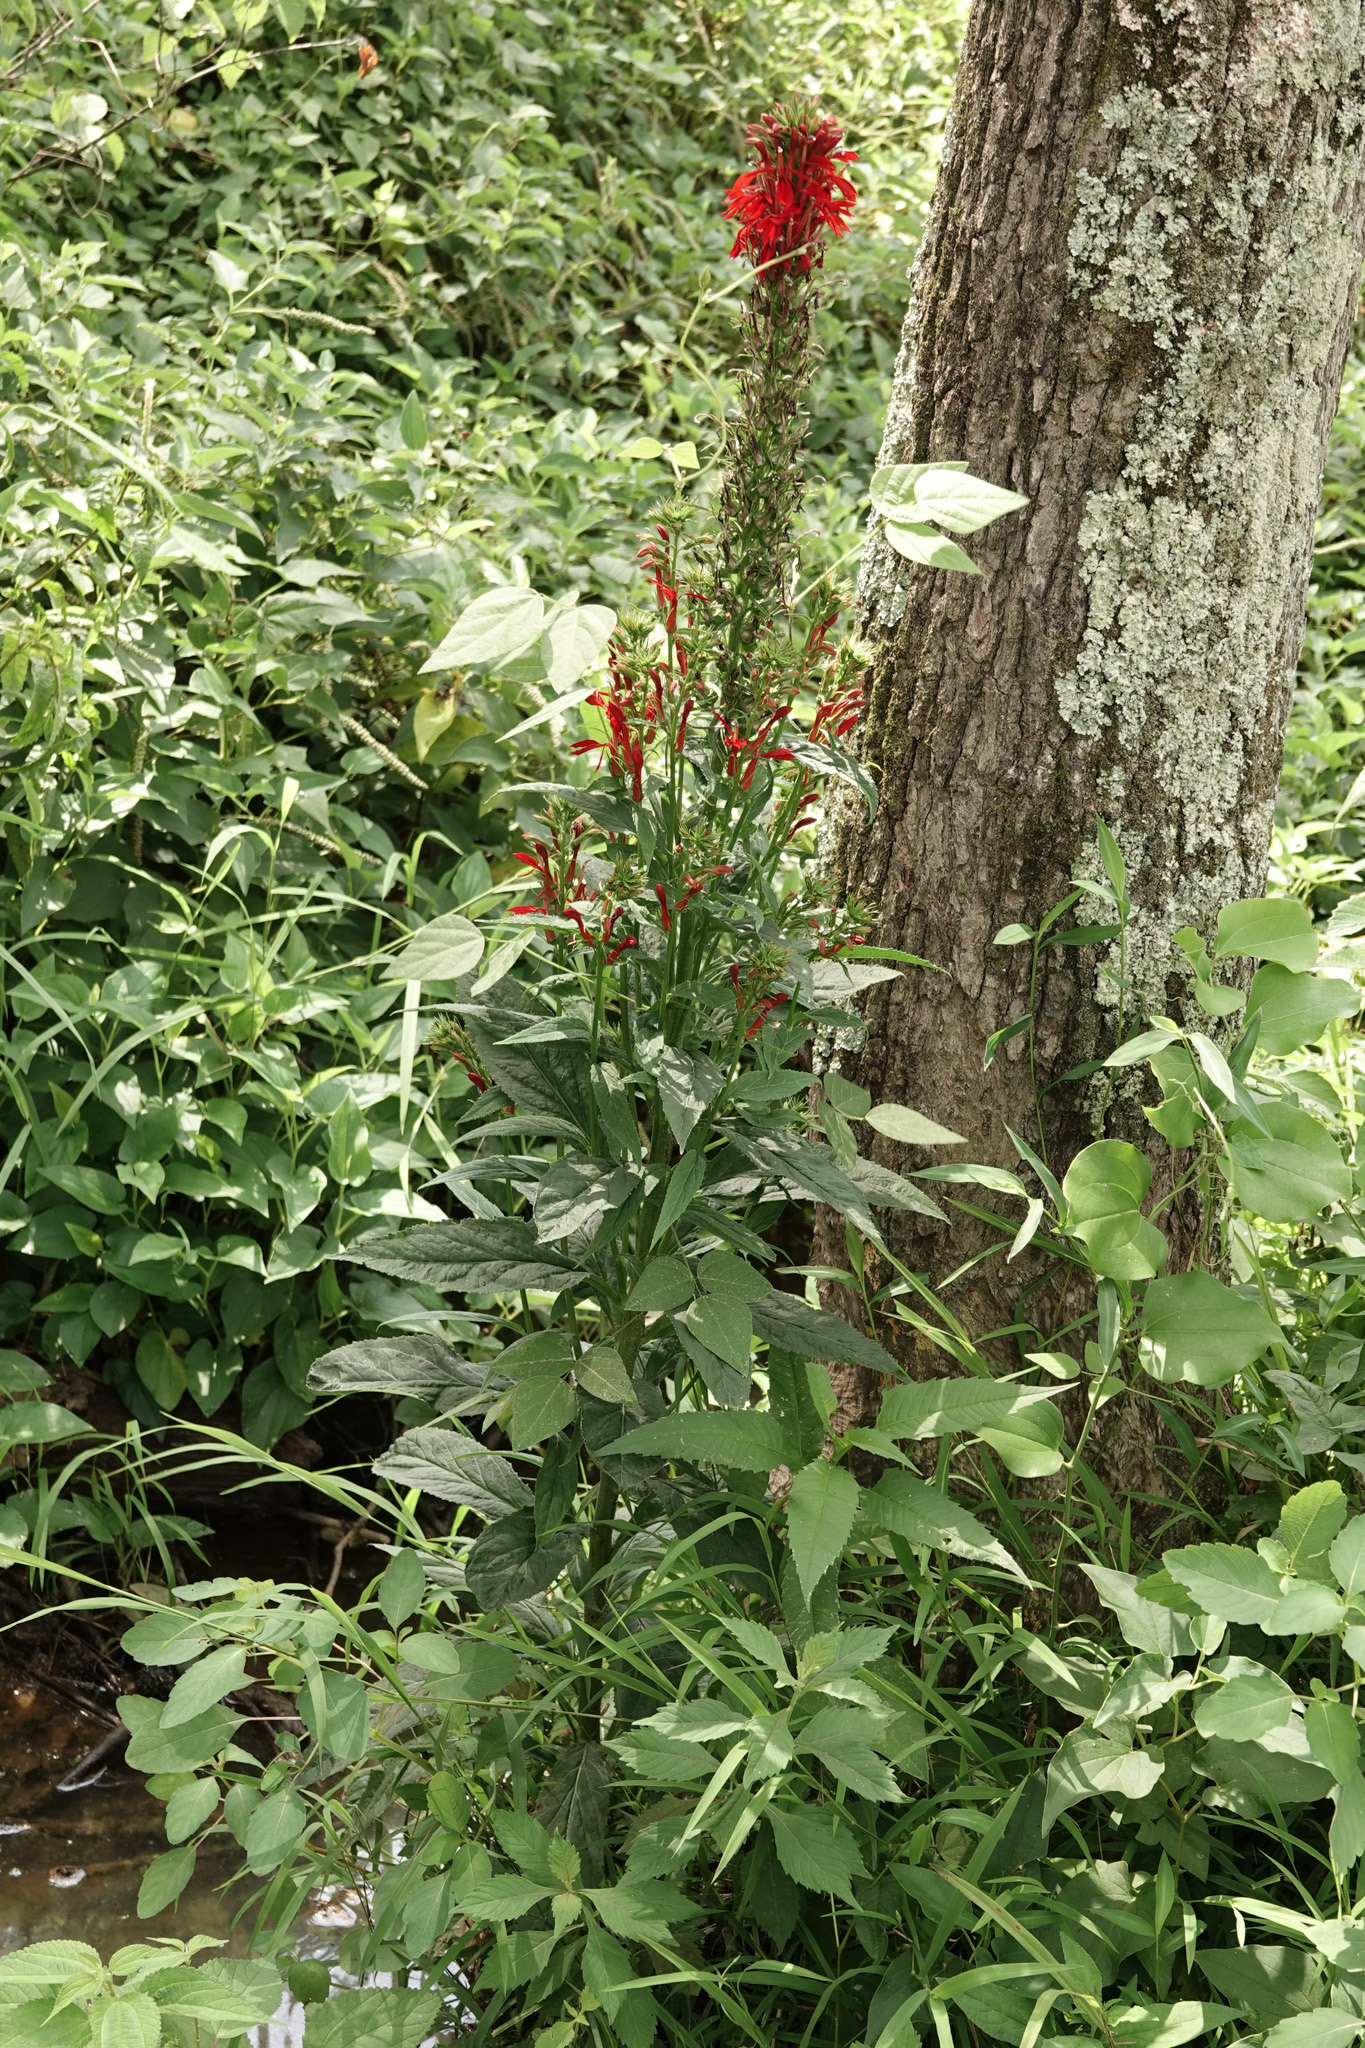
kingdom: Plantae
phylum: Tracheophyta
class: Magnoliopsida
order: Asterales
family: Campanulaceae
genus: Lobelia
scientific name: Lobelia cardinalis
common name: Cardinal flower
